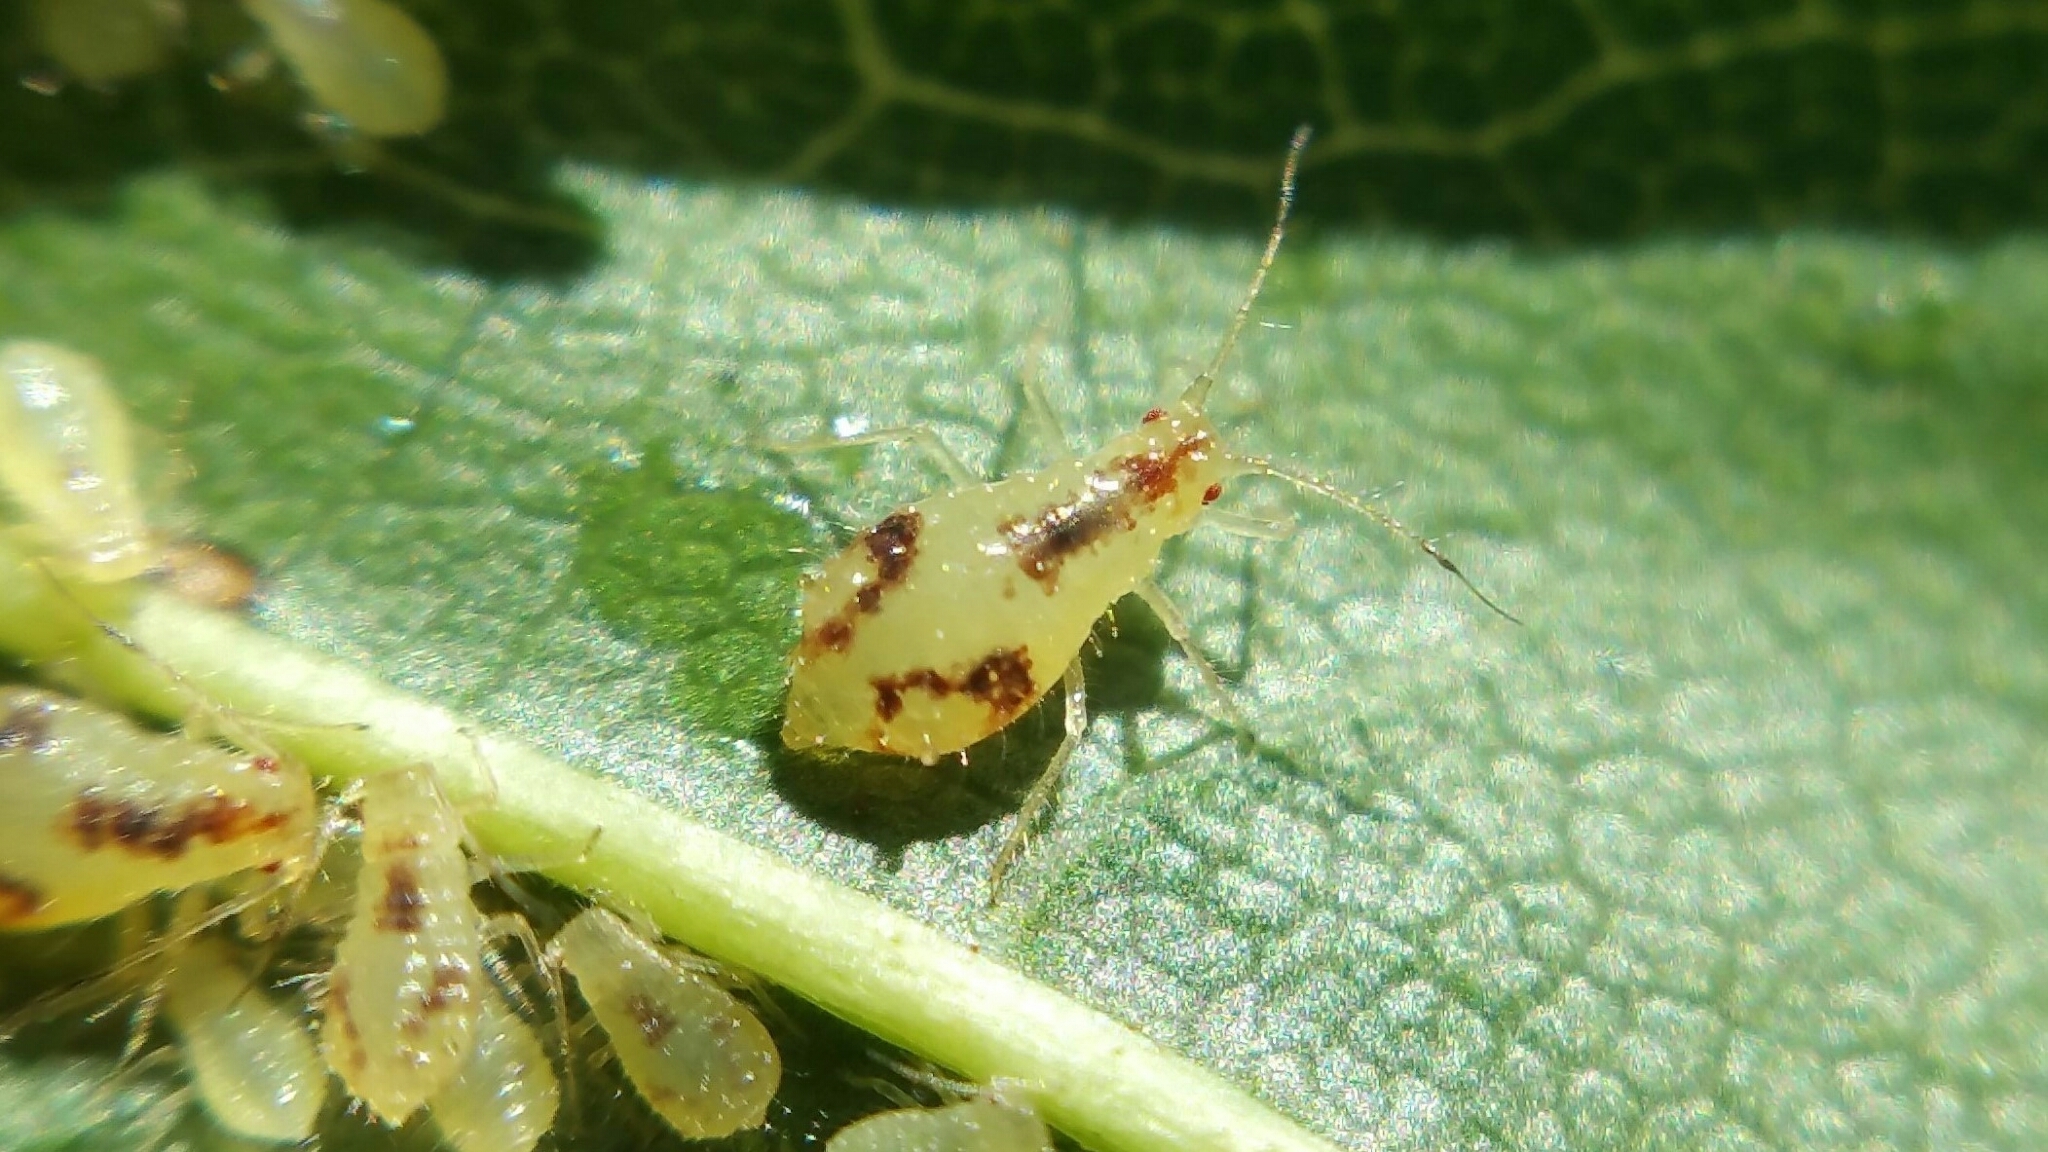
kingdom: Animalia
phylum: Arthropoda
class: Insecta
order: Hemiptera
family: Aphididae
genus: Periphyllus
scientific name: Periphyllus lyropictus
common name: Norway maple aphid
